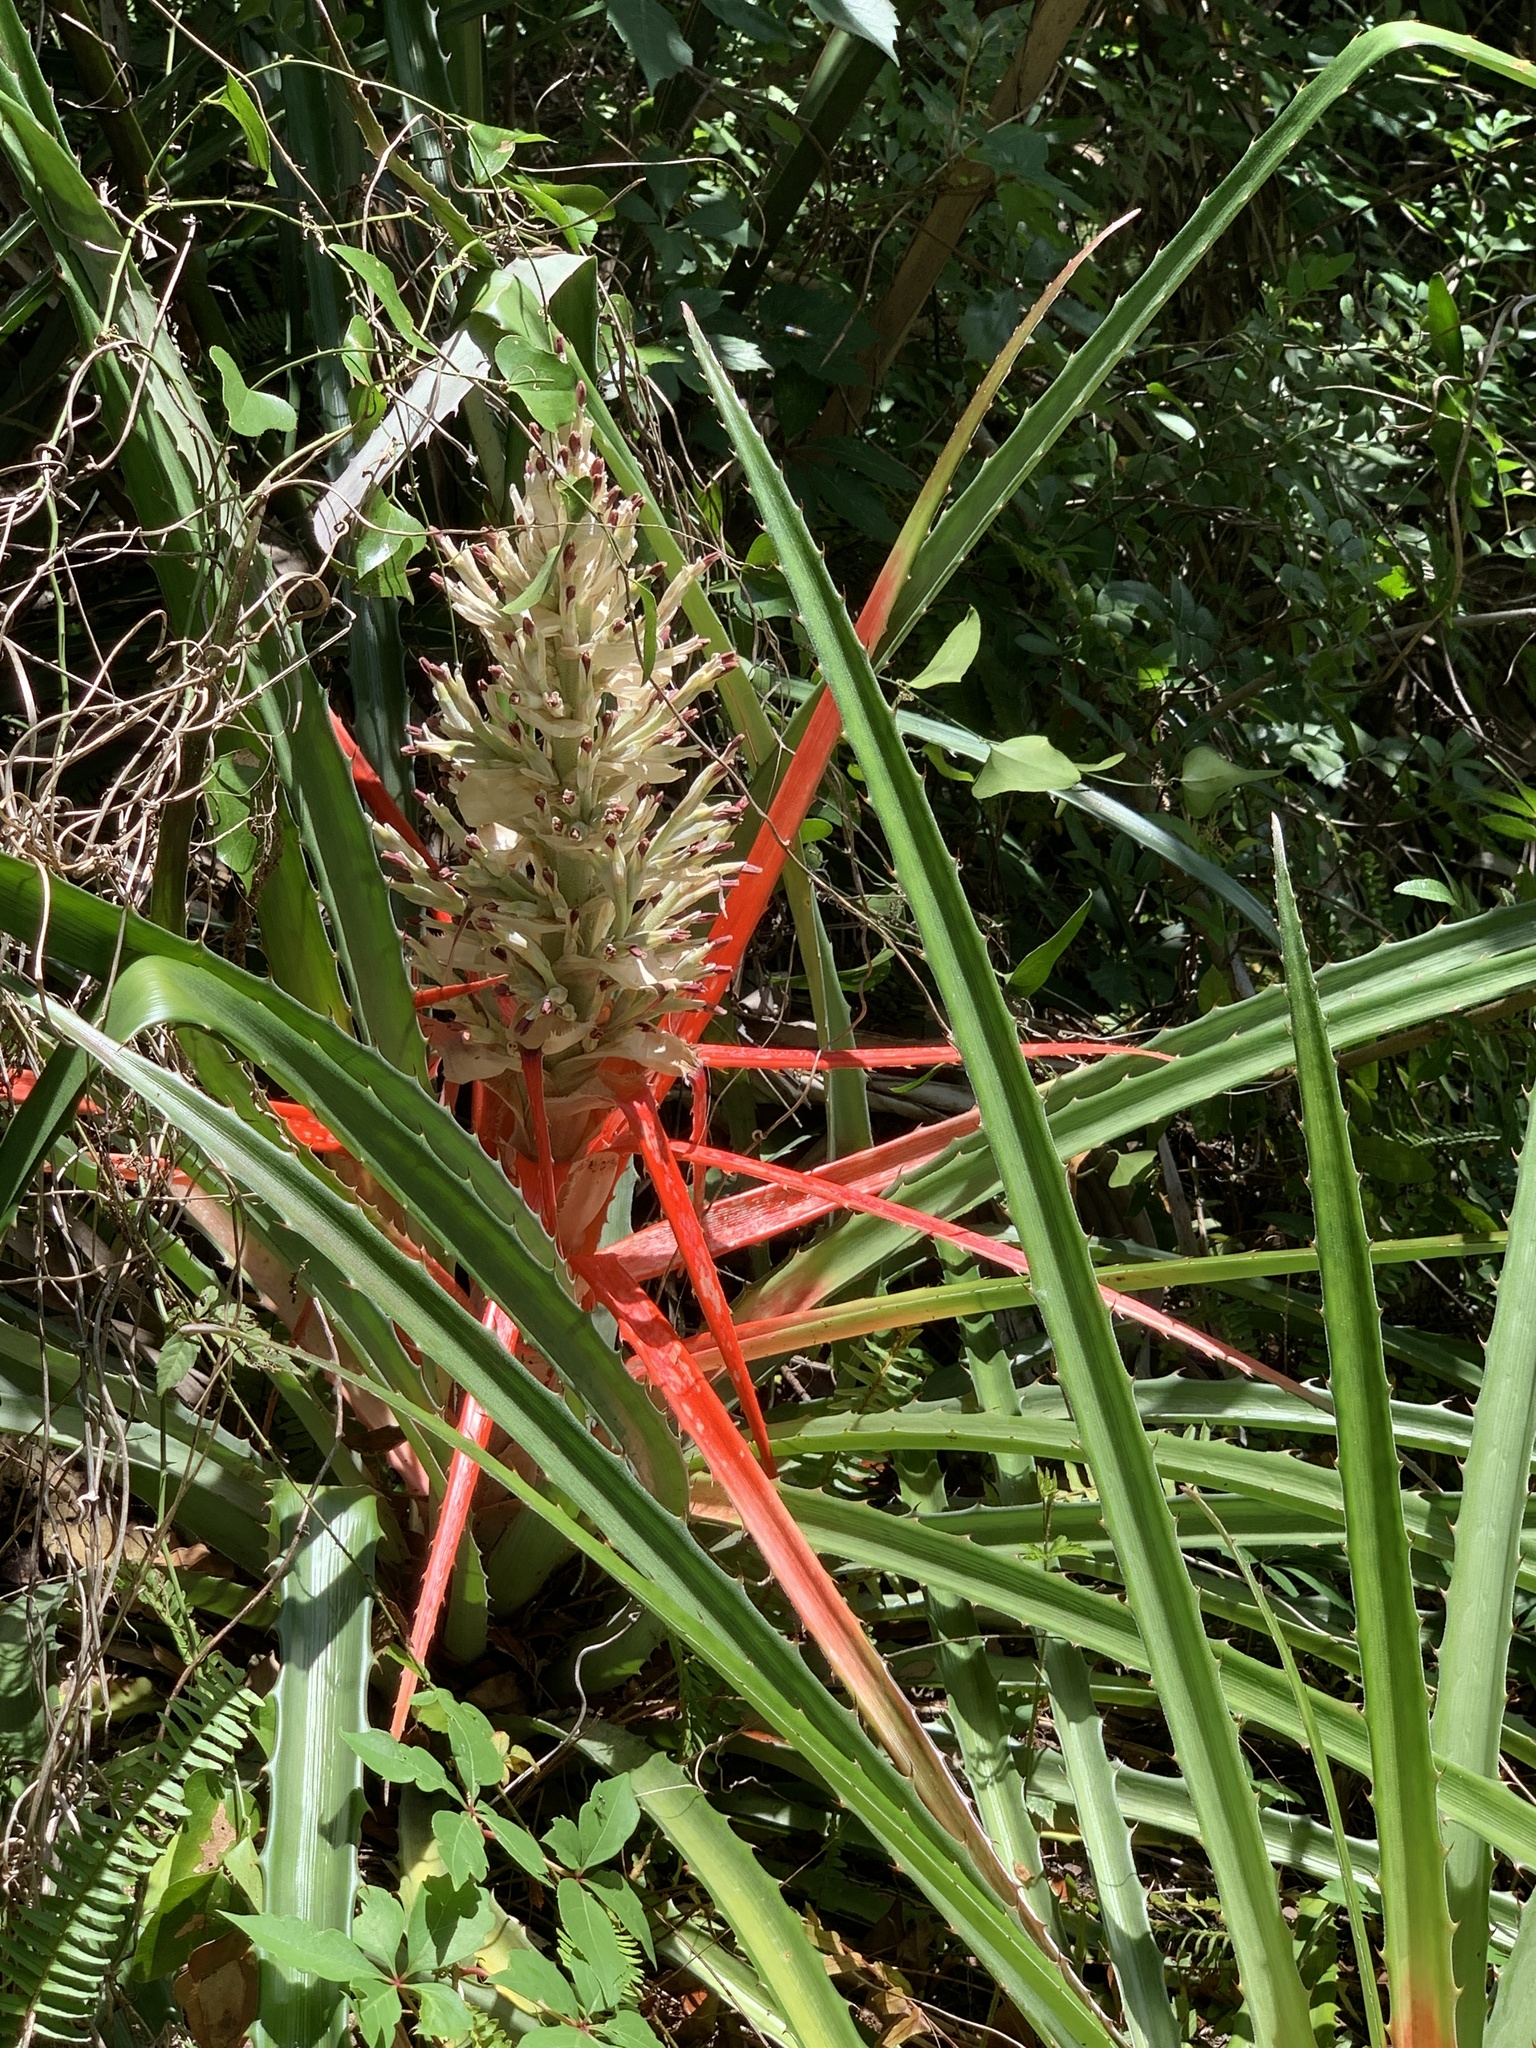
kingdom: Plantae
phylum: Tracheophyta
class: Liliopsida
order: Poales
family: Bromeliaceae
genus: Bromelia
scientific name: Bromelia pinguin
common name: Pinguin
